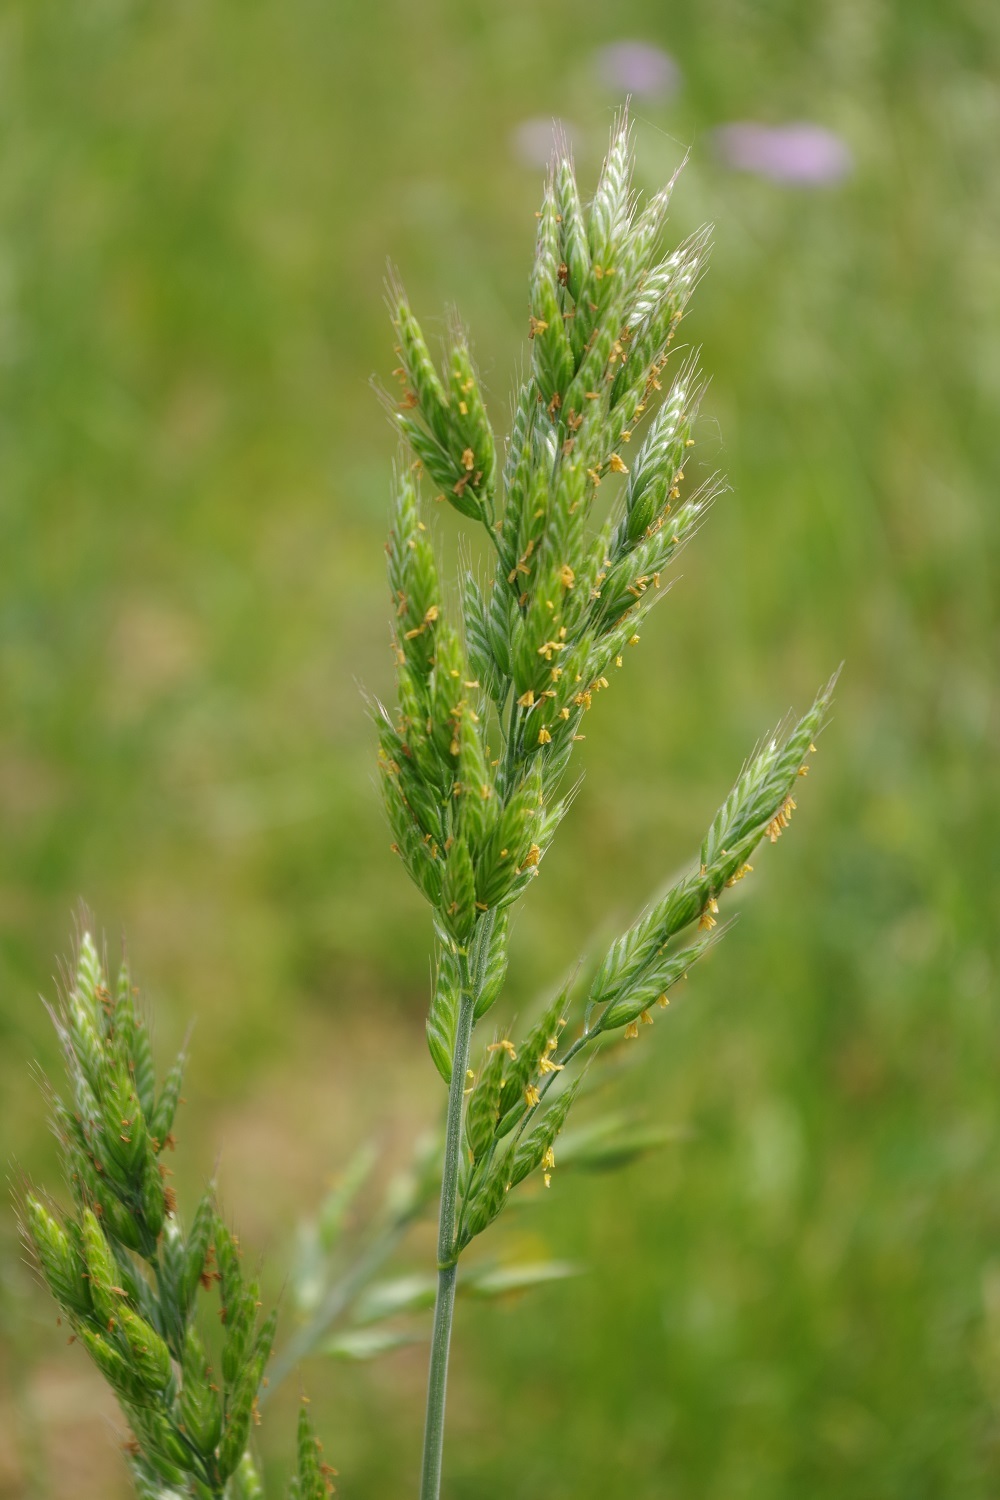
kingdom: Plantae
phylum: Tracheophyta
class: Liliopsida
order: Poales
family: Poaceae
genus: Bromus
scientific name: Bromus hordeaceus
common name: Soft brome
